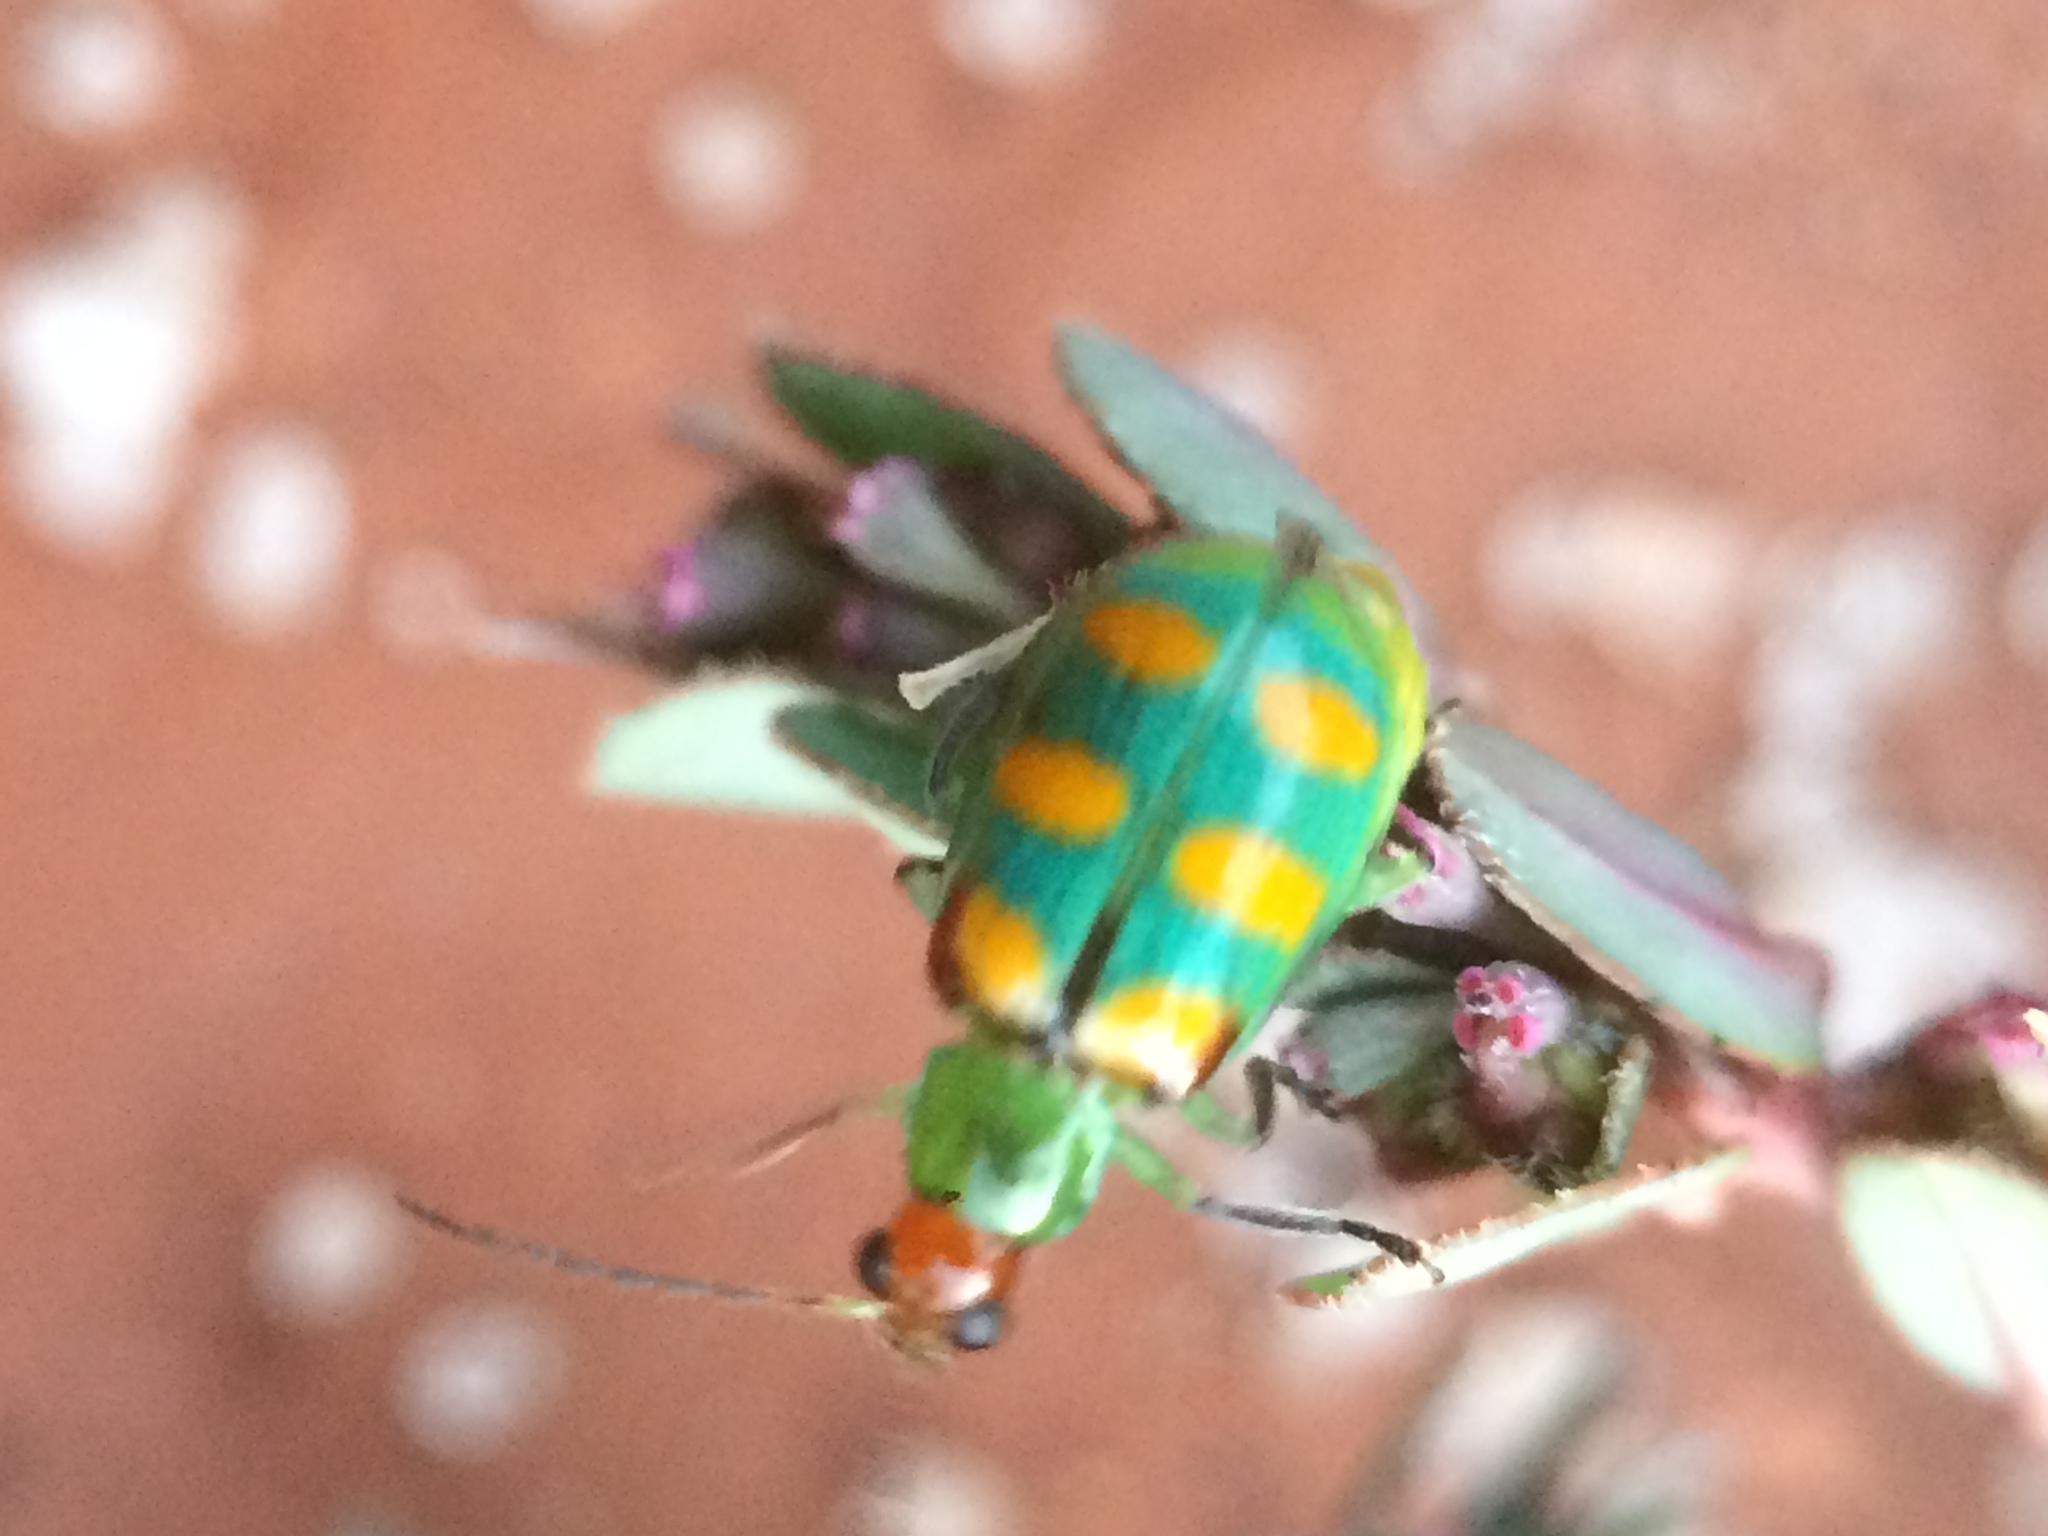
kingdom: Animalia
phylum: Arthropoda
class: Insecta
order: Coleoptera
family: Chrysomelidae
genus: Diabrotica
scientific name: Diabrotica speciosa
